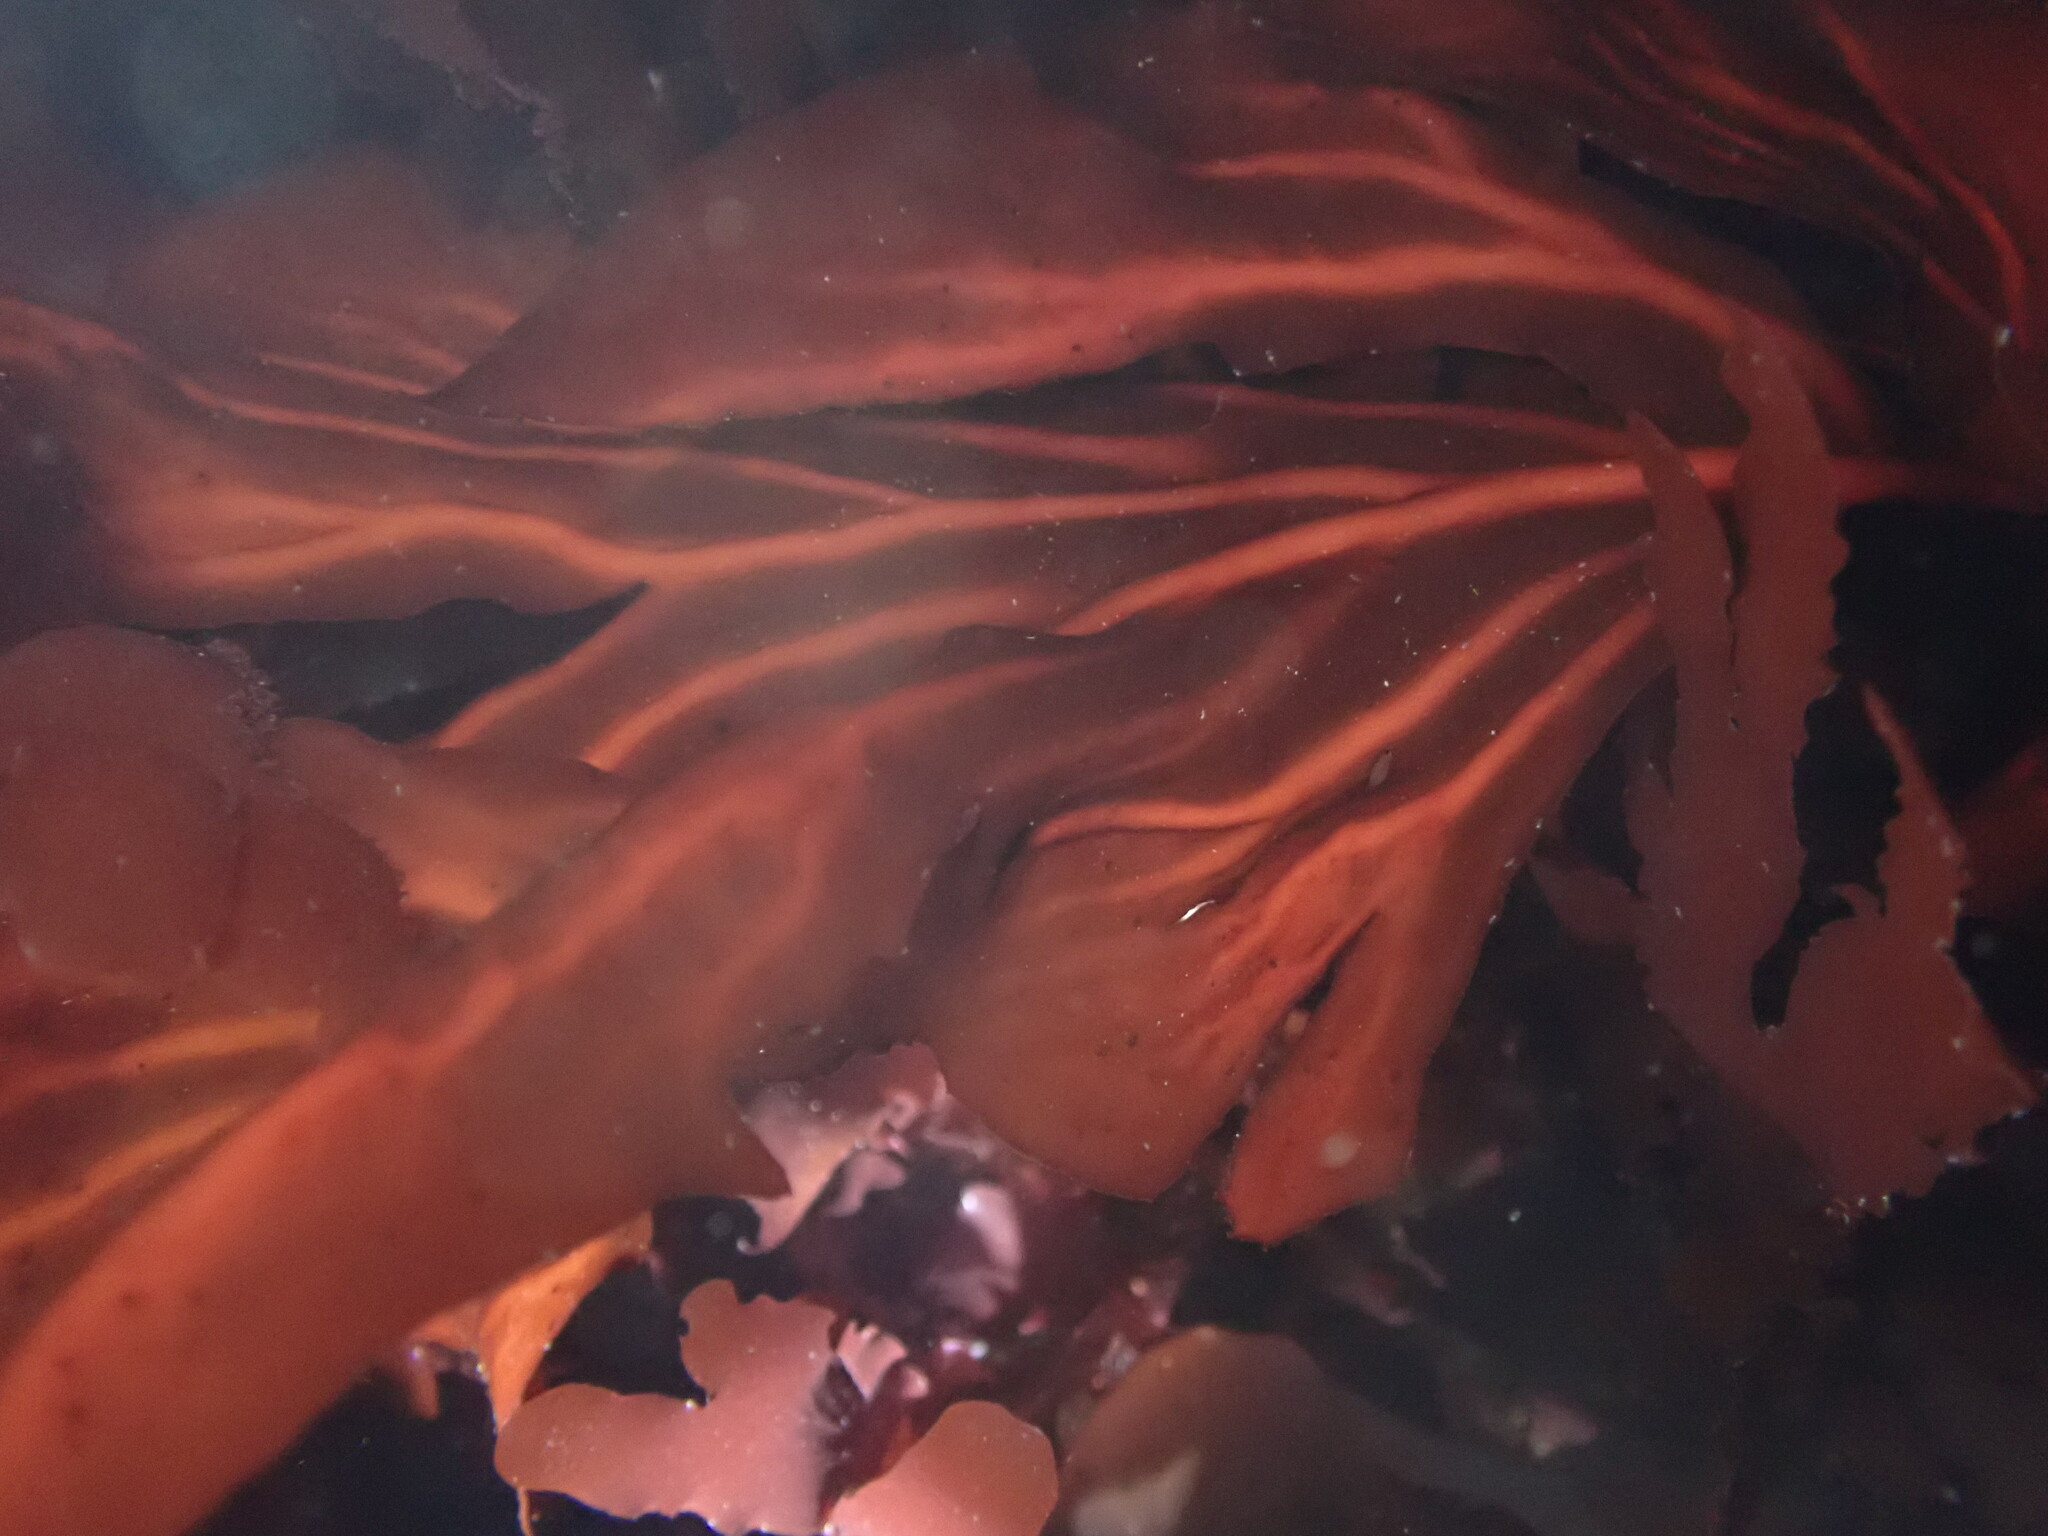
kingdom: Plantae
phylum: Rhodophyta
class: Florideophyceae
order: Gigartinales
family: Kallymeniaceae
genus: Erythrophyllum
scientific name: Erythrophyllum delesserioides
